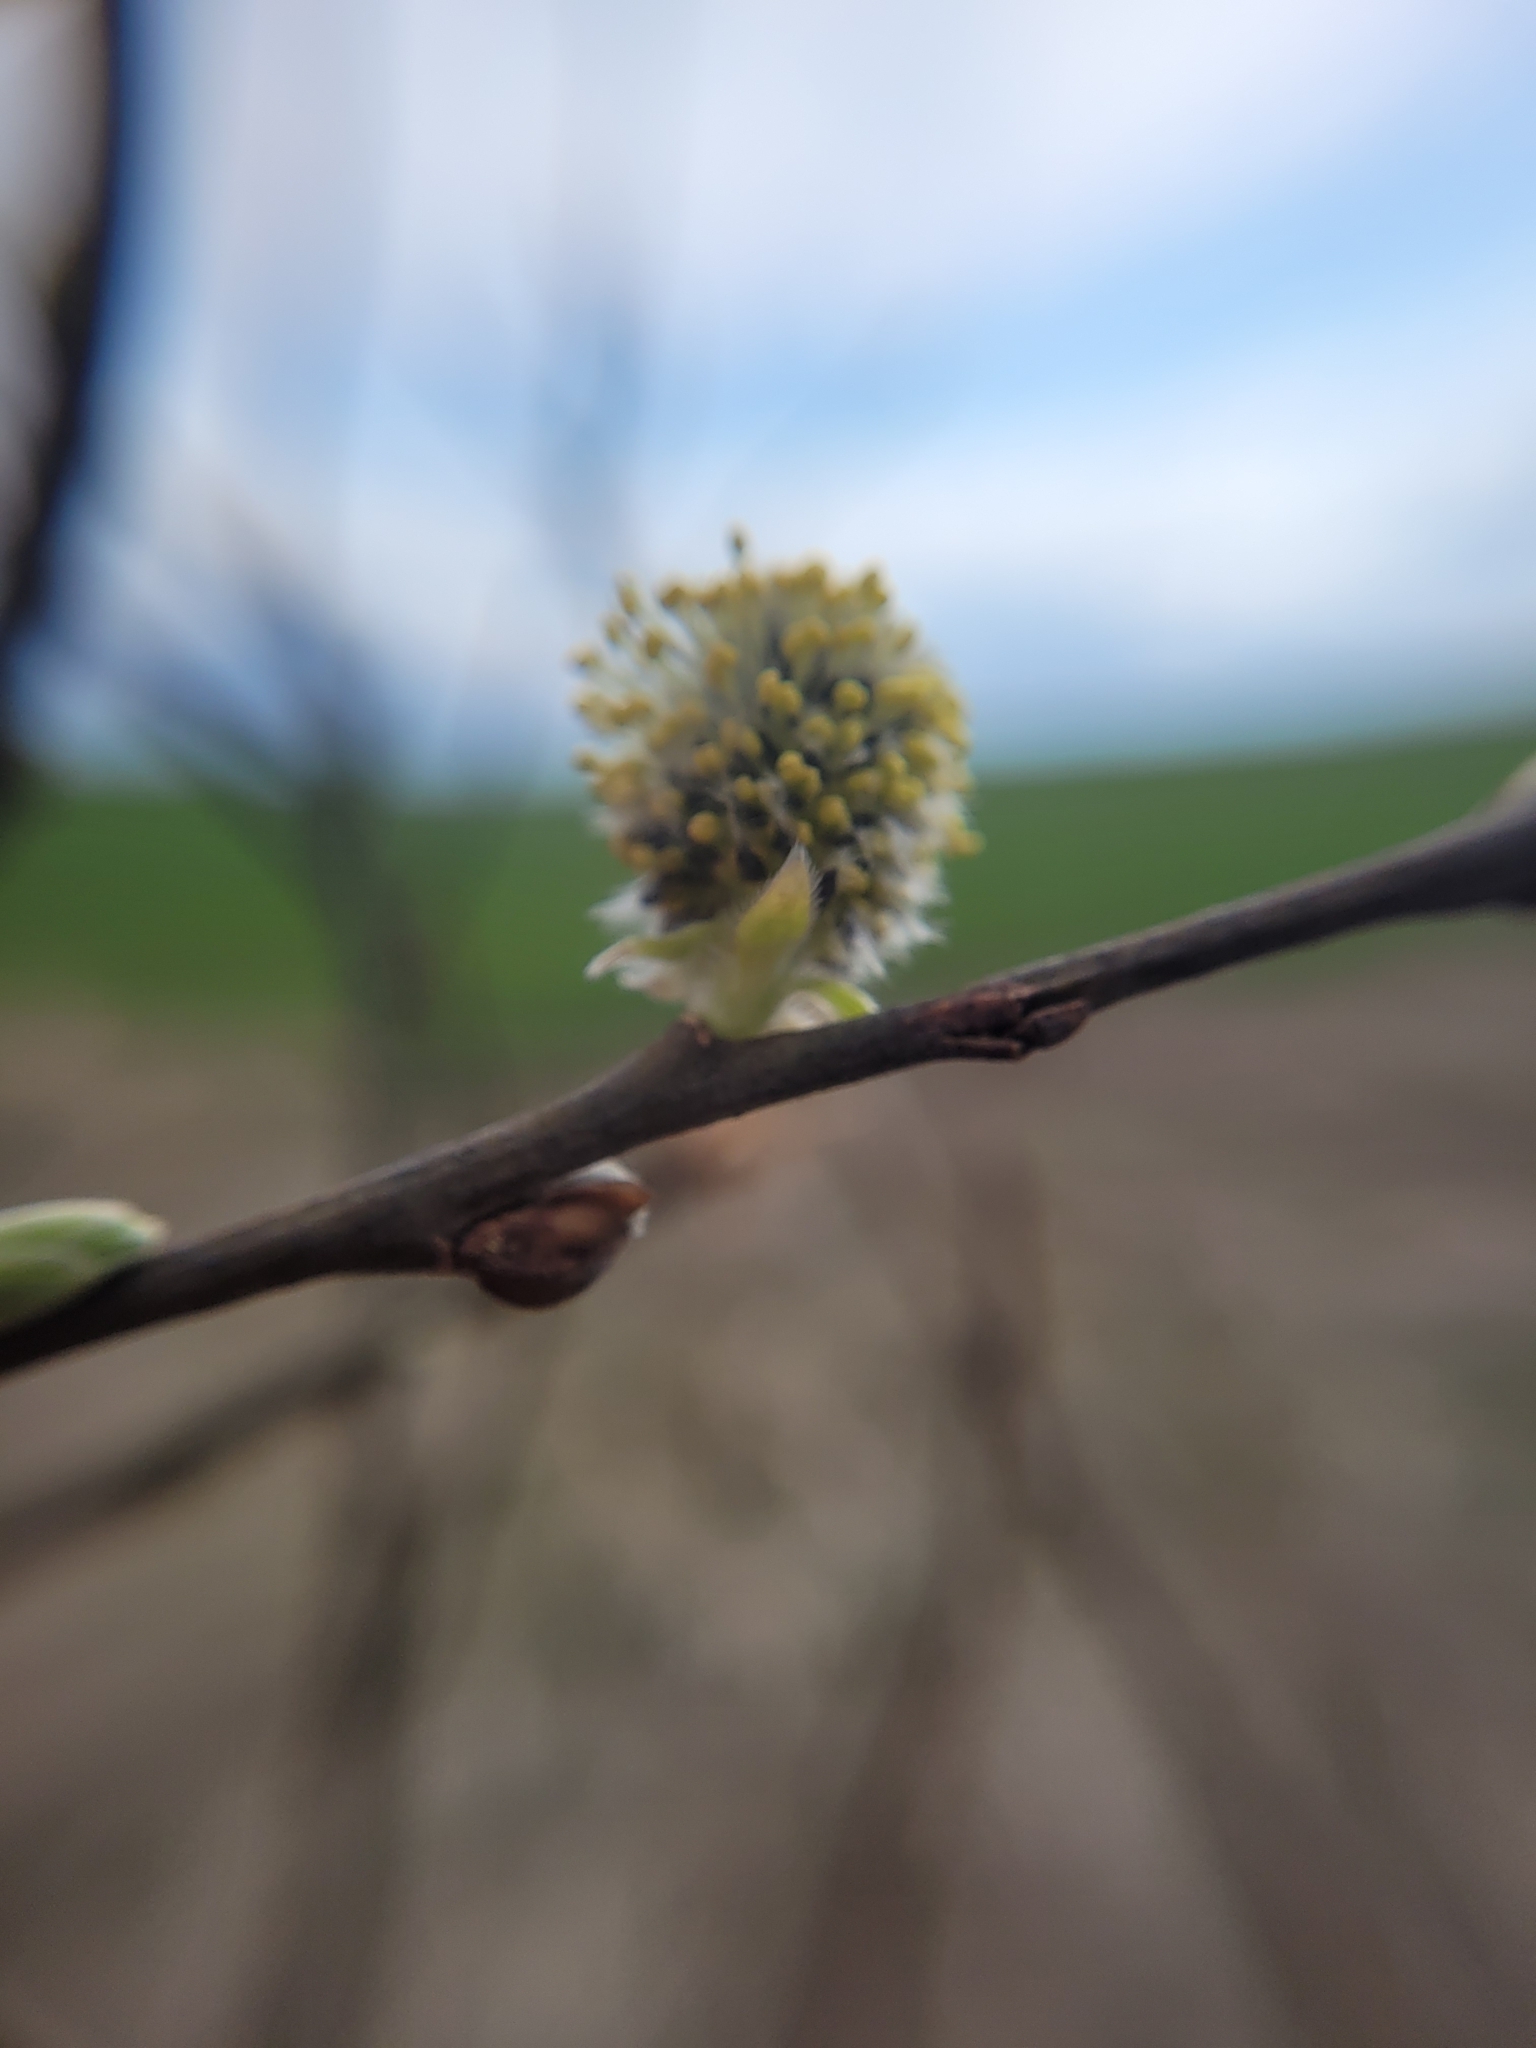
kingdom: Plantae
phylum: Tracheophyta
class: Magnoliopsida
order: Malpighiales
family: Salicaceae
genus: Salix
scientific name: Salix caprea
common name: Goat willow
